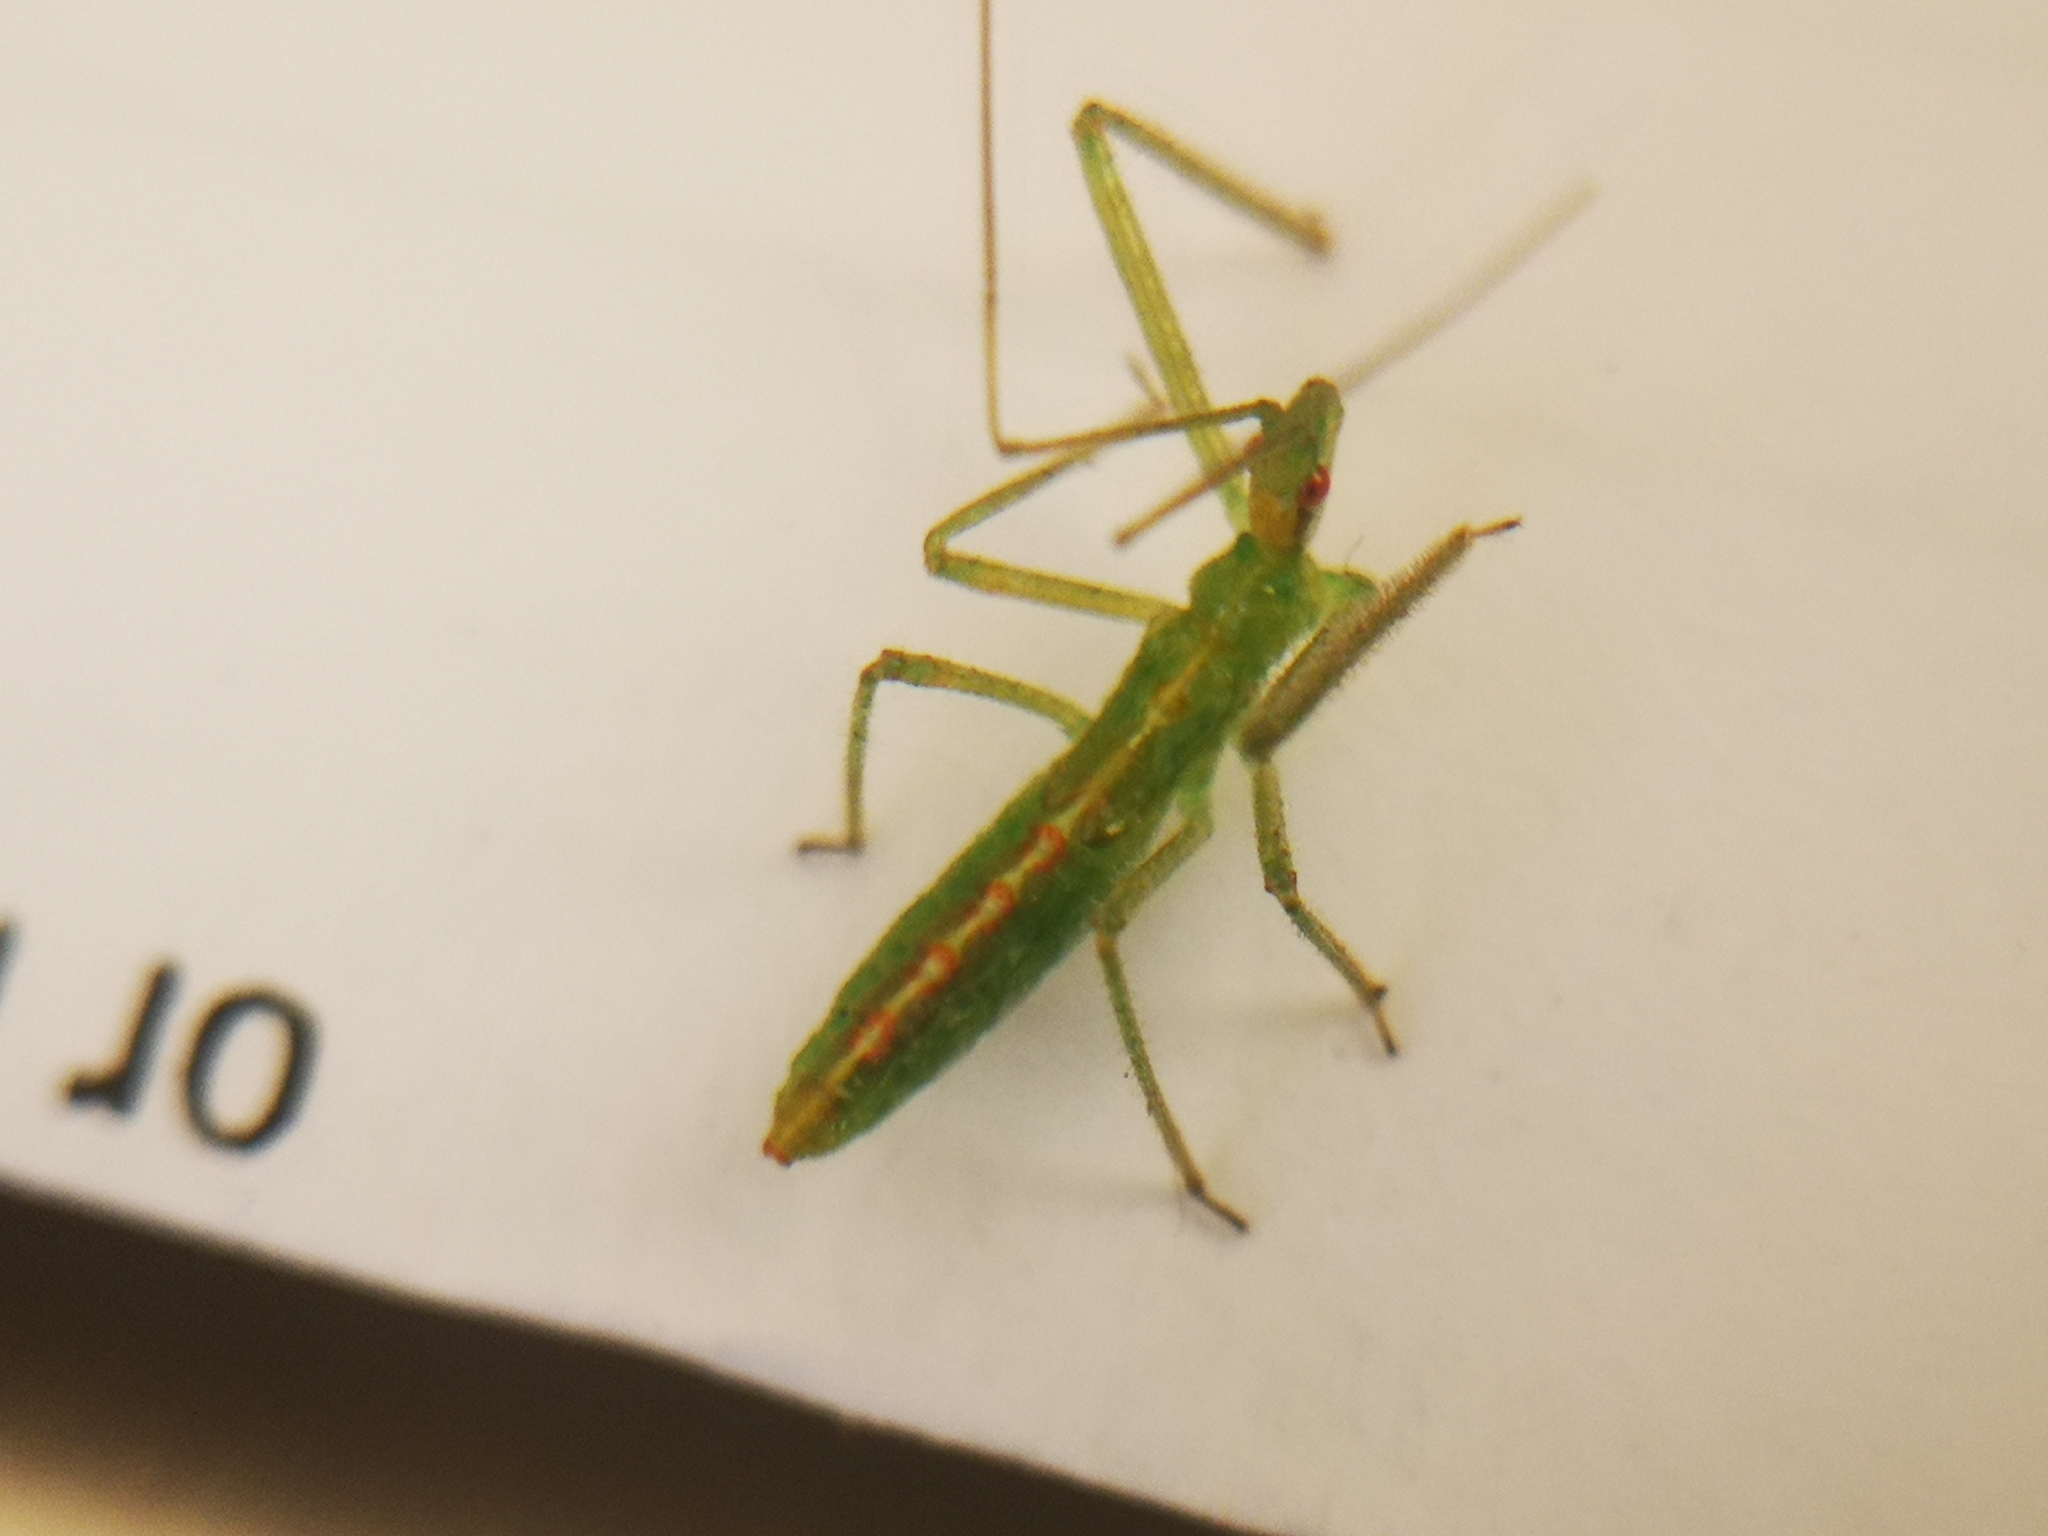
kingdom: Animalia
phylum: Arthropoda
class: Insecta
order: Hemiptera
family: Reduviidae
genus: Zelus
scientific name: Zelus luridus
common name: Pale green assassin bug
